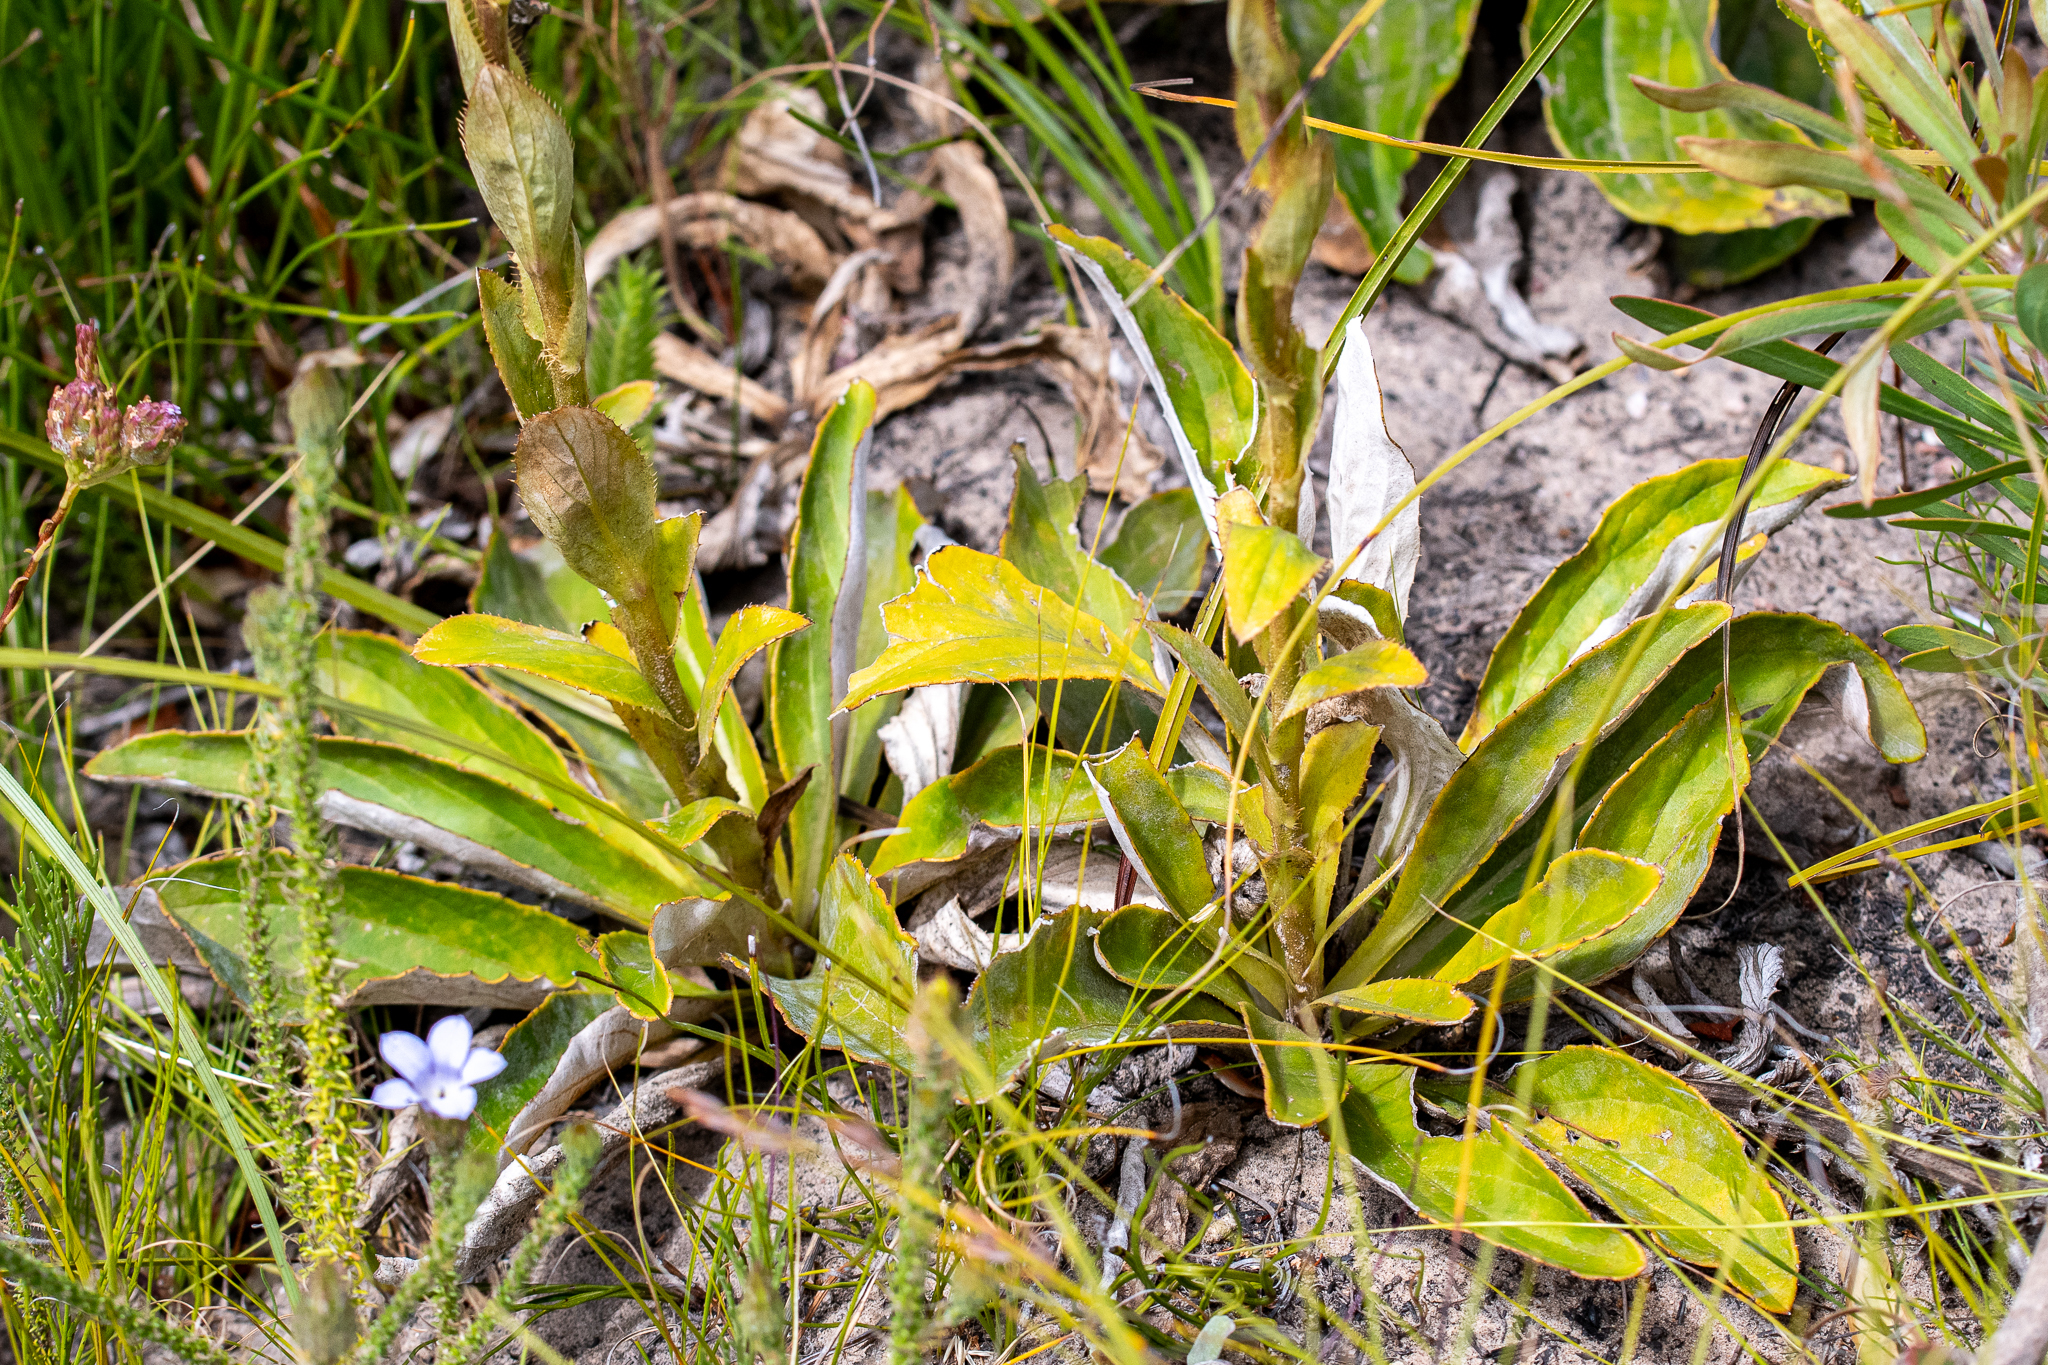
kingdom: Plantae
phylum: Tracheophyta
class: Magnoliopsida
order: Asterales
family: Asteraceae
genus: Berkheya
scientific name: Berkheya herbacea
